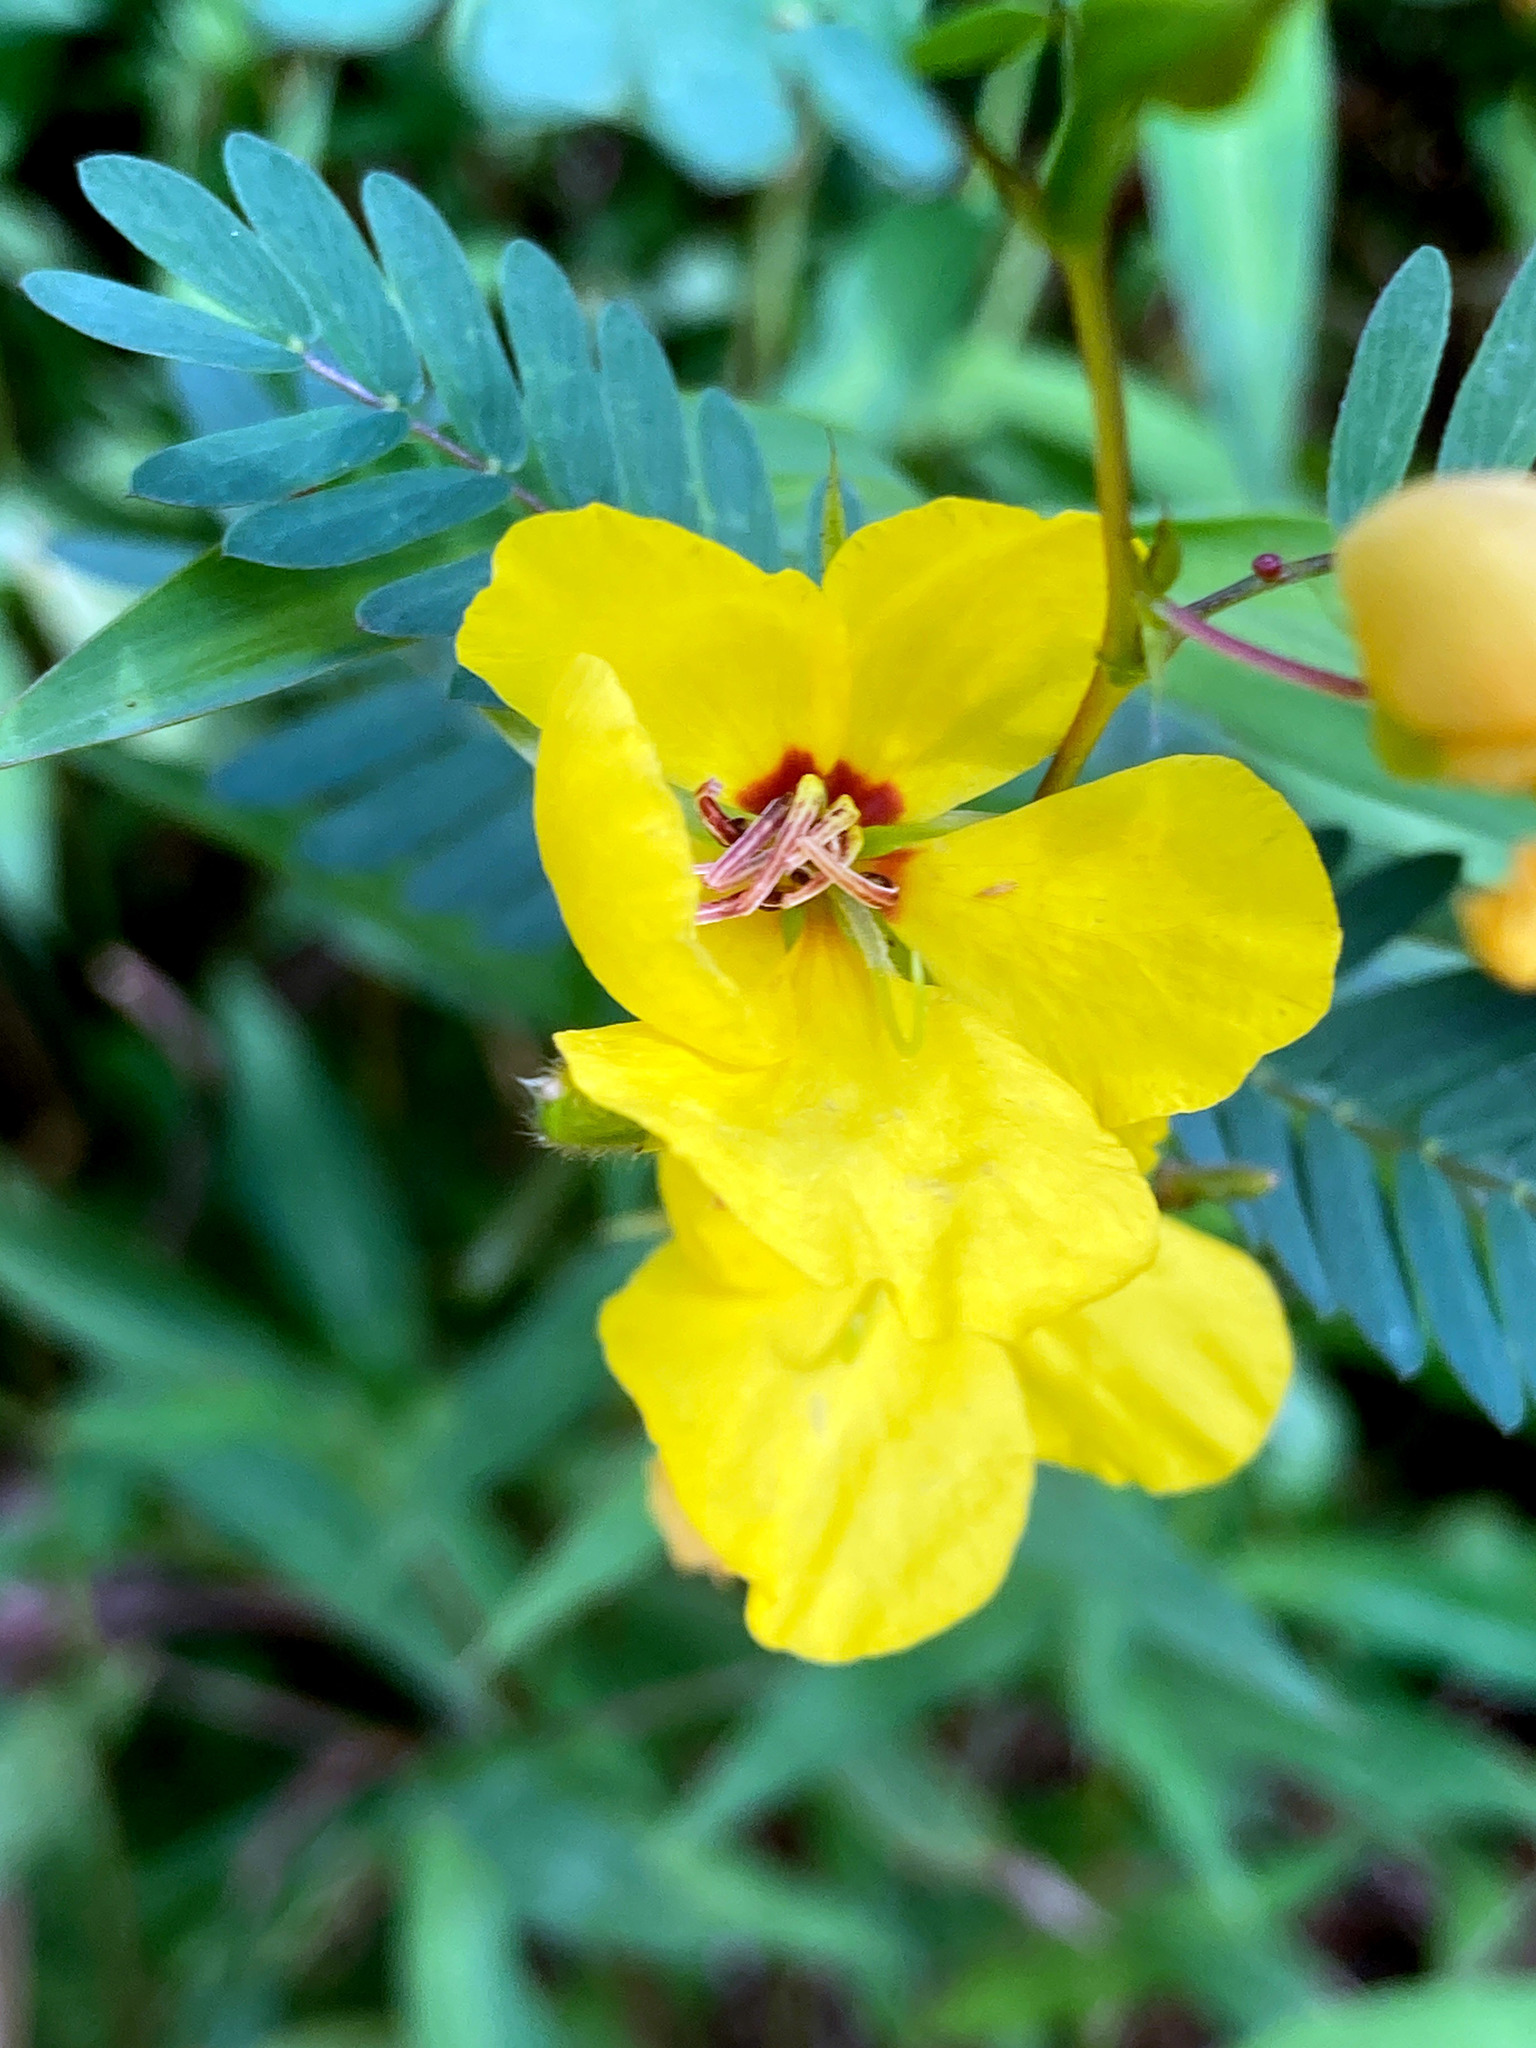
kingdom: Plantae
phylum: Tracheophyta
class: Magnoliopsida
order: Fabales
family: Fabaceae
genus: Chamaecrista
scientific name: Chamaecrista fasciculata
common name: Golden cassia
